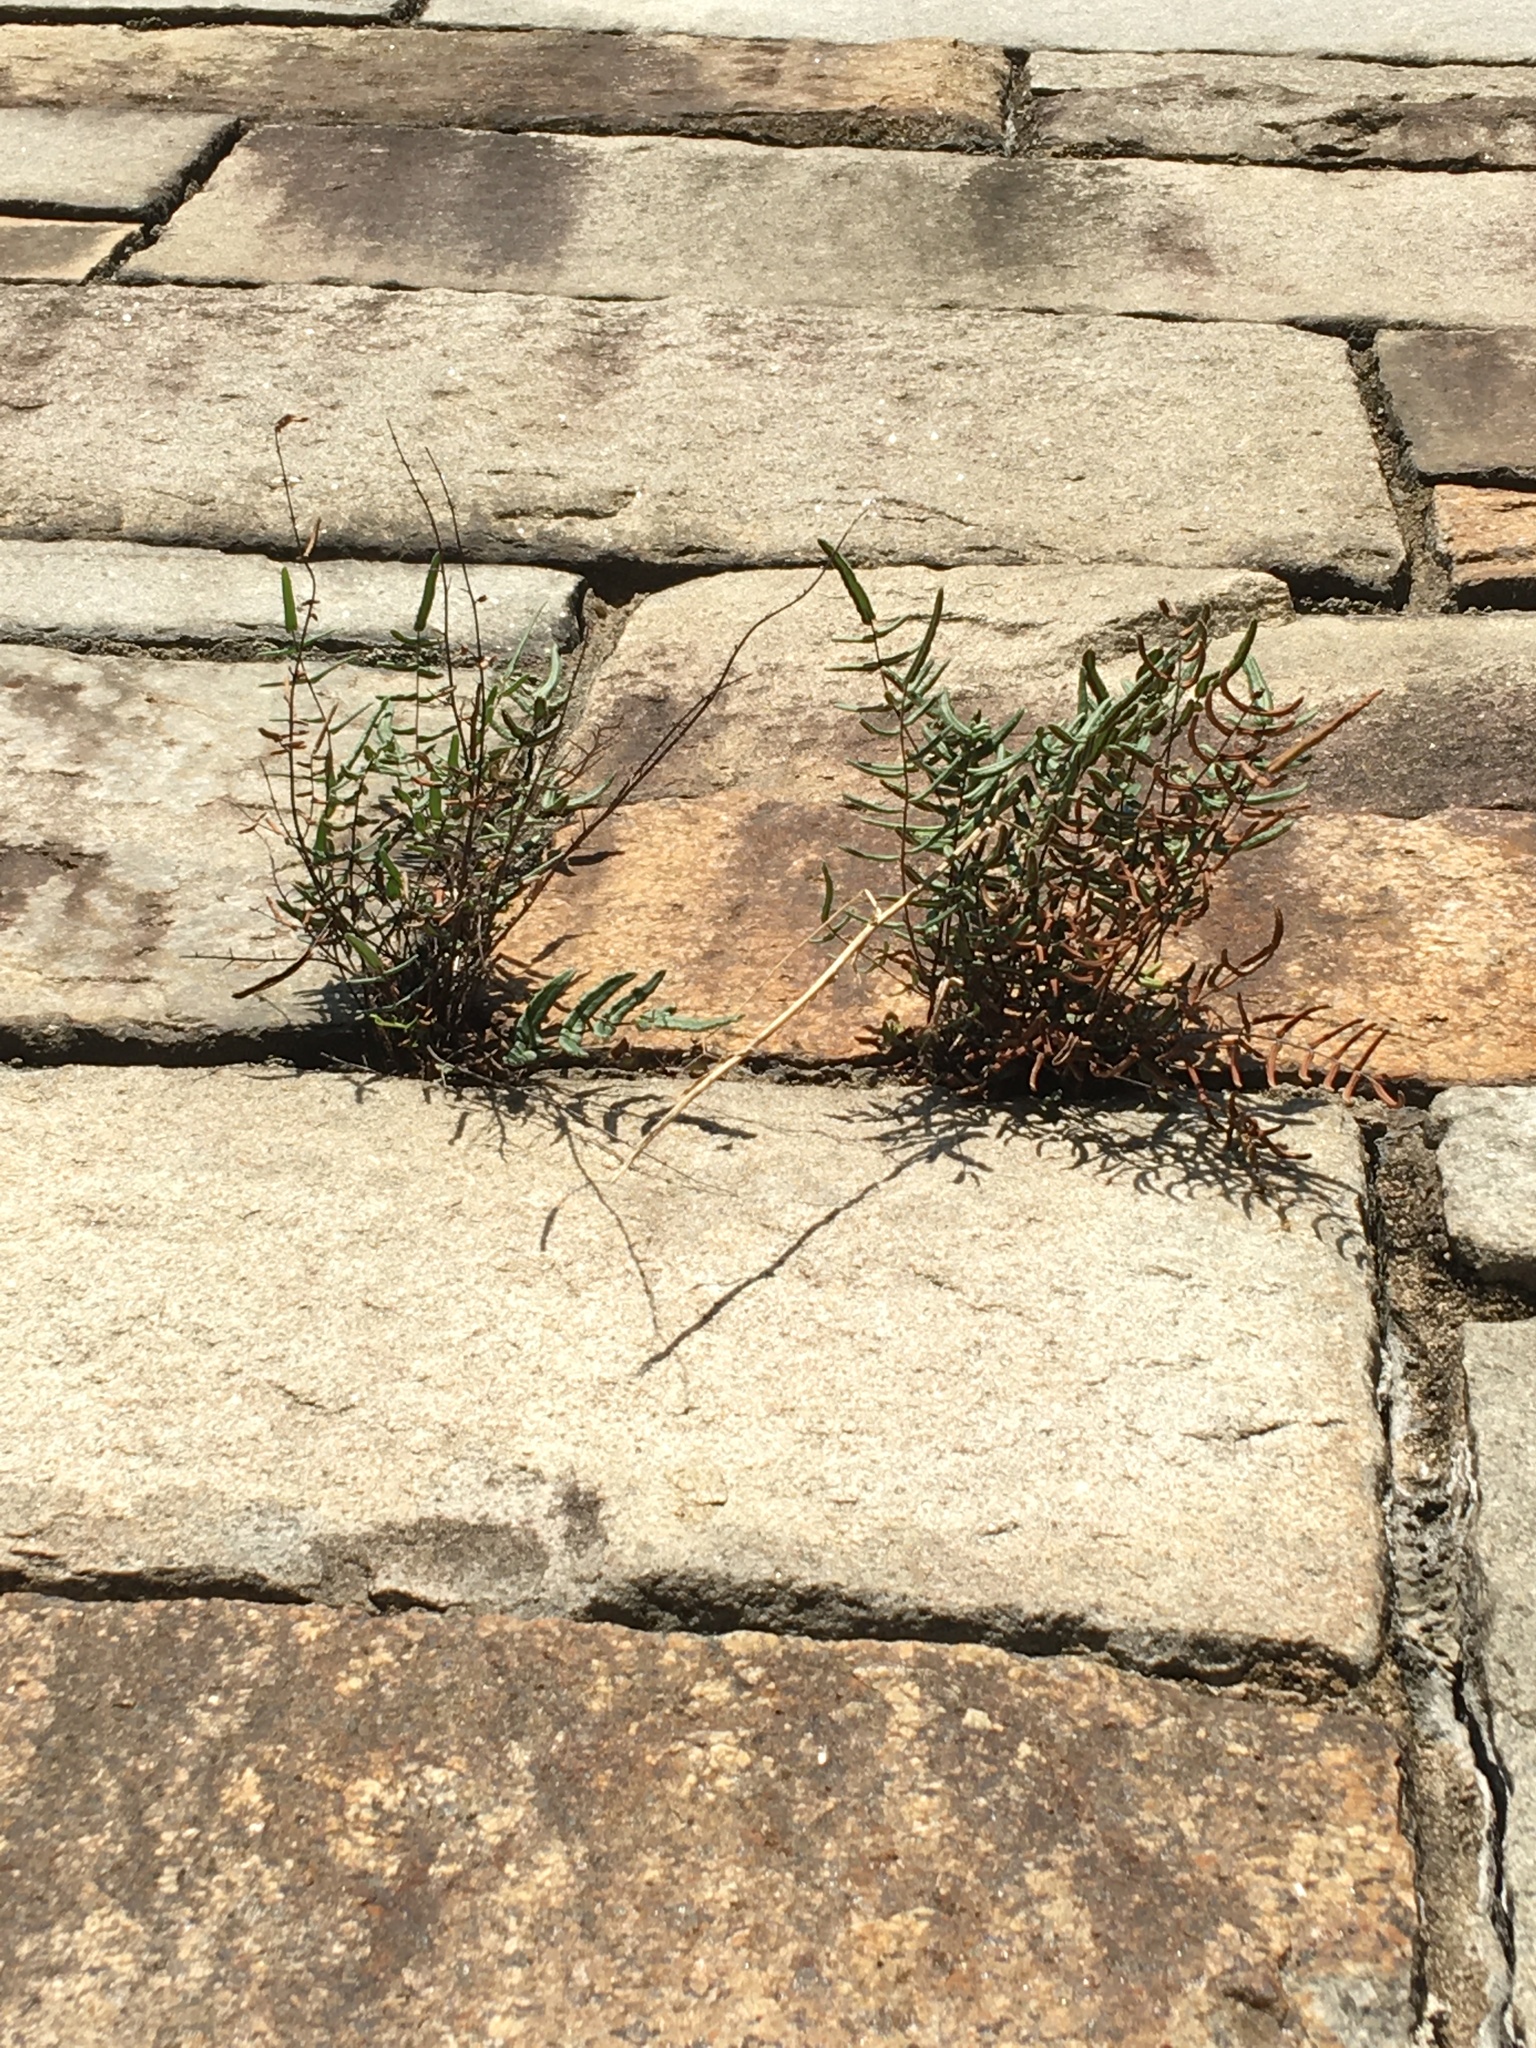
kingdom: Plantae
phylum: Tracheophyta
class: Polypodiopsida
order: Polypodiales
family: Pteridaceae
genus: Pellaea
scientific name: Pellaea atropurpurea
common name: Hairy cliffbrake
